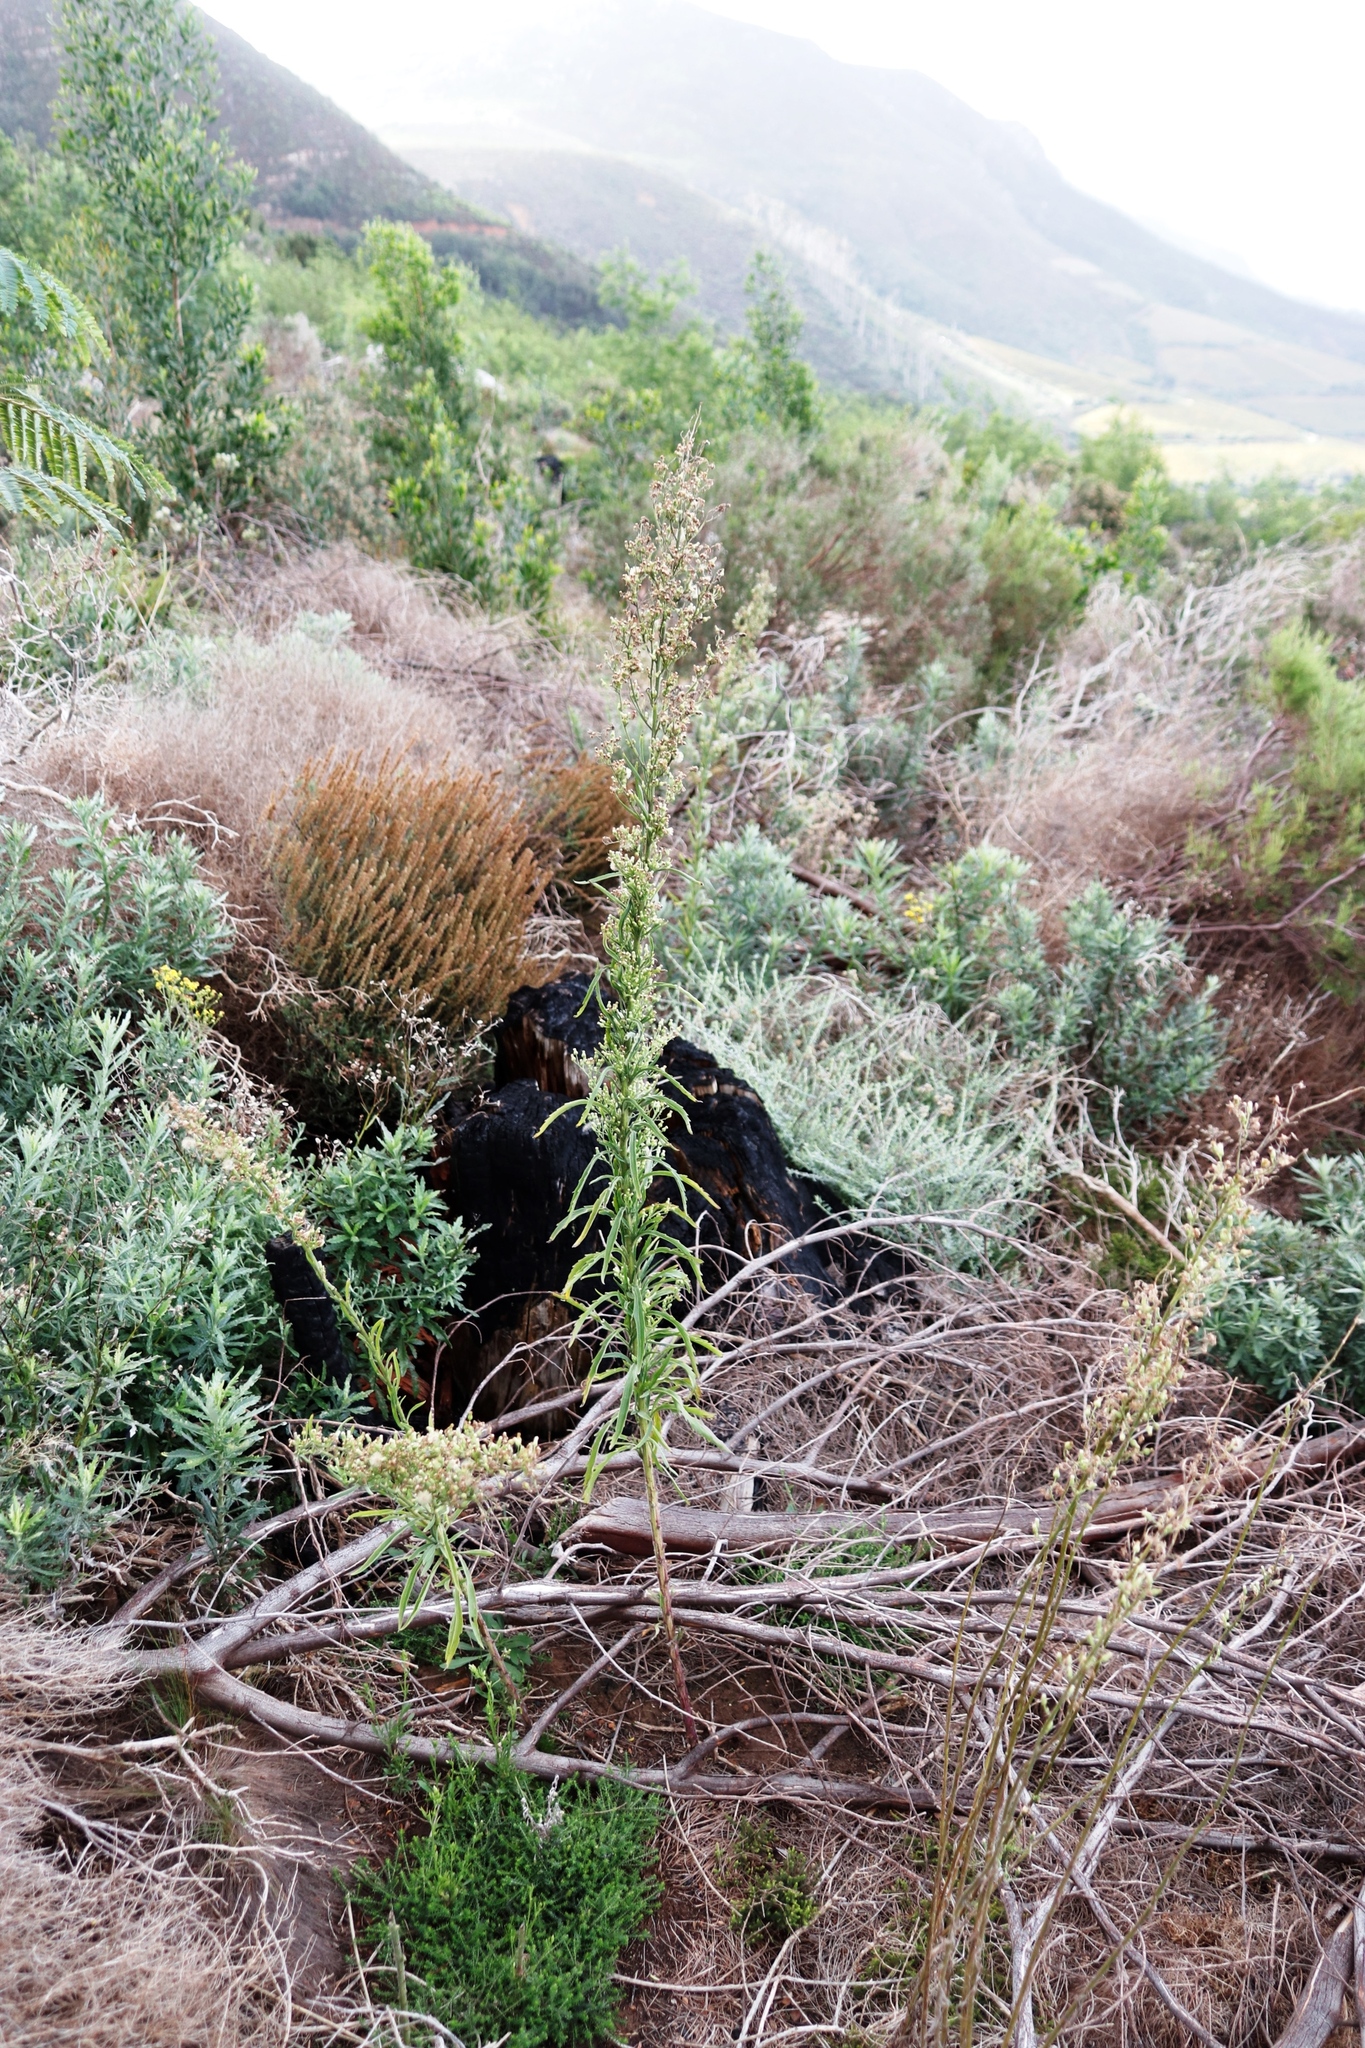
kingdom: Plantae
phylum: Tracheophyta
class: Magnoliopsida
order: Asterales
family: Asteraceae
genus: Erigeron
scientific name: Erigeron sumatrensis
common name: Daisy
